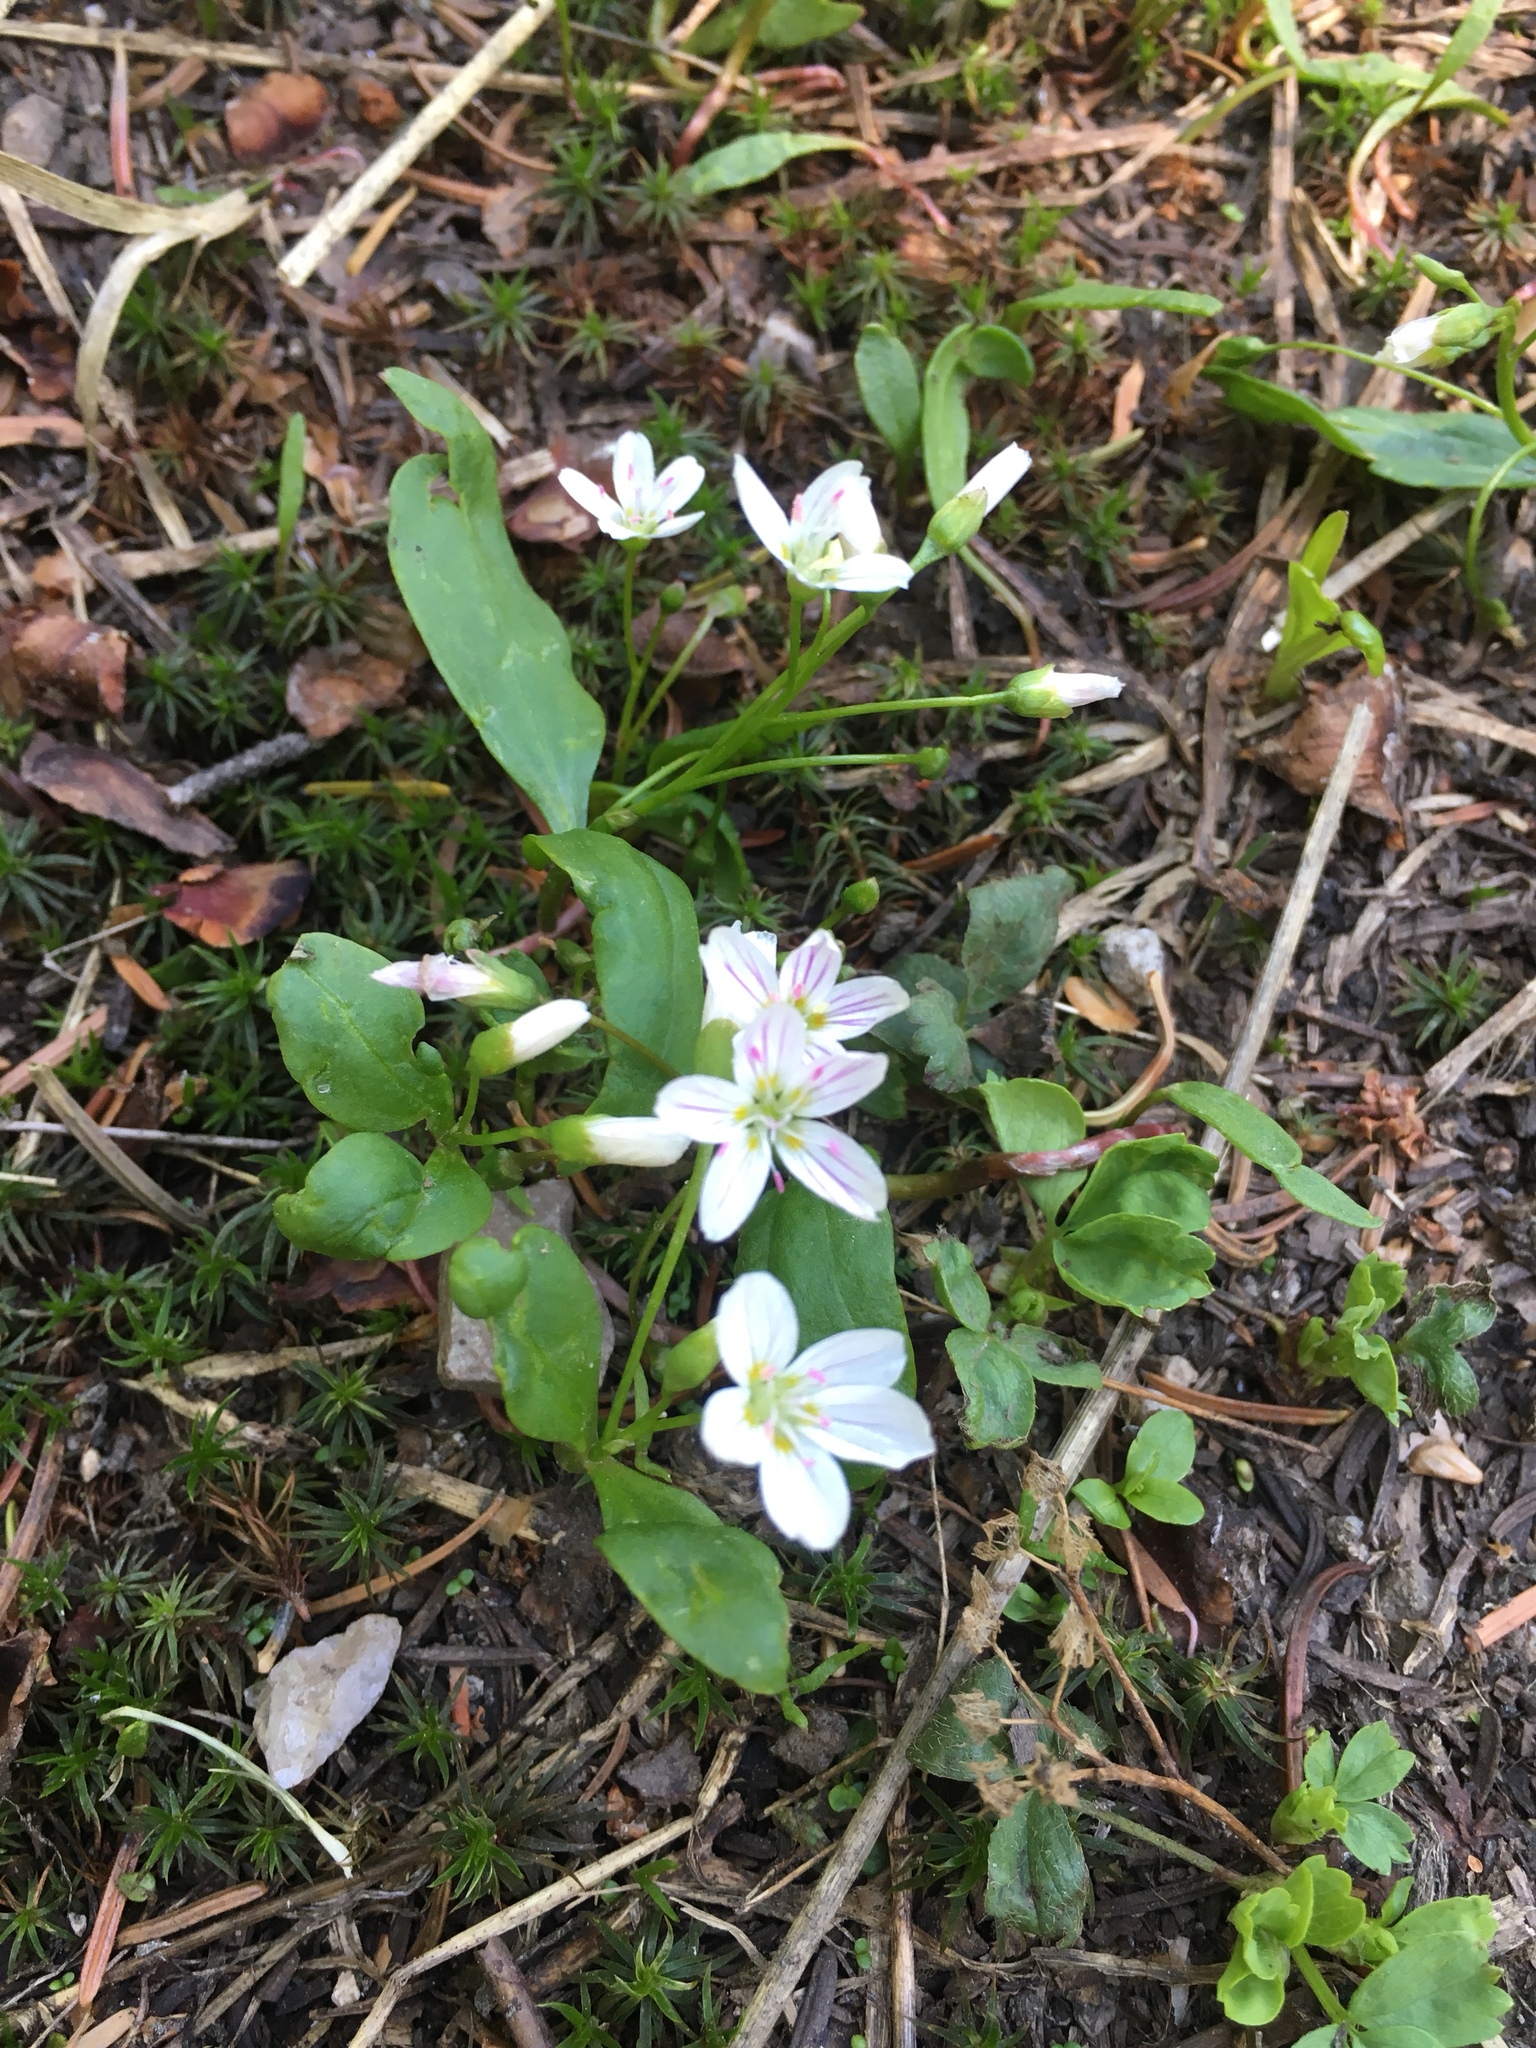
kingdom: Plantae
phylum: Tracheophyta
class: Magnoliopsida
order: Caryophyllales
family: Montiaceae
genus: Claytonia
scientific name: Claytonia lanceolata
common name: Western spring-beauty
